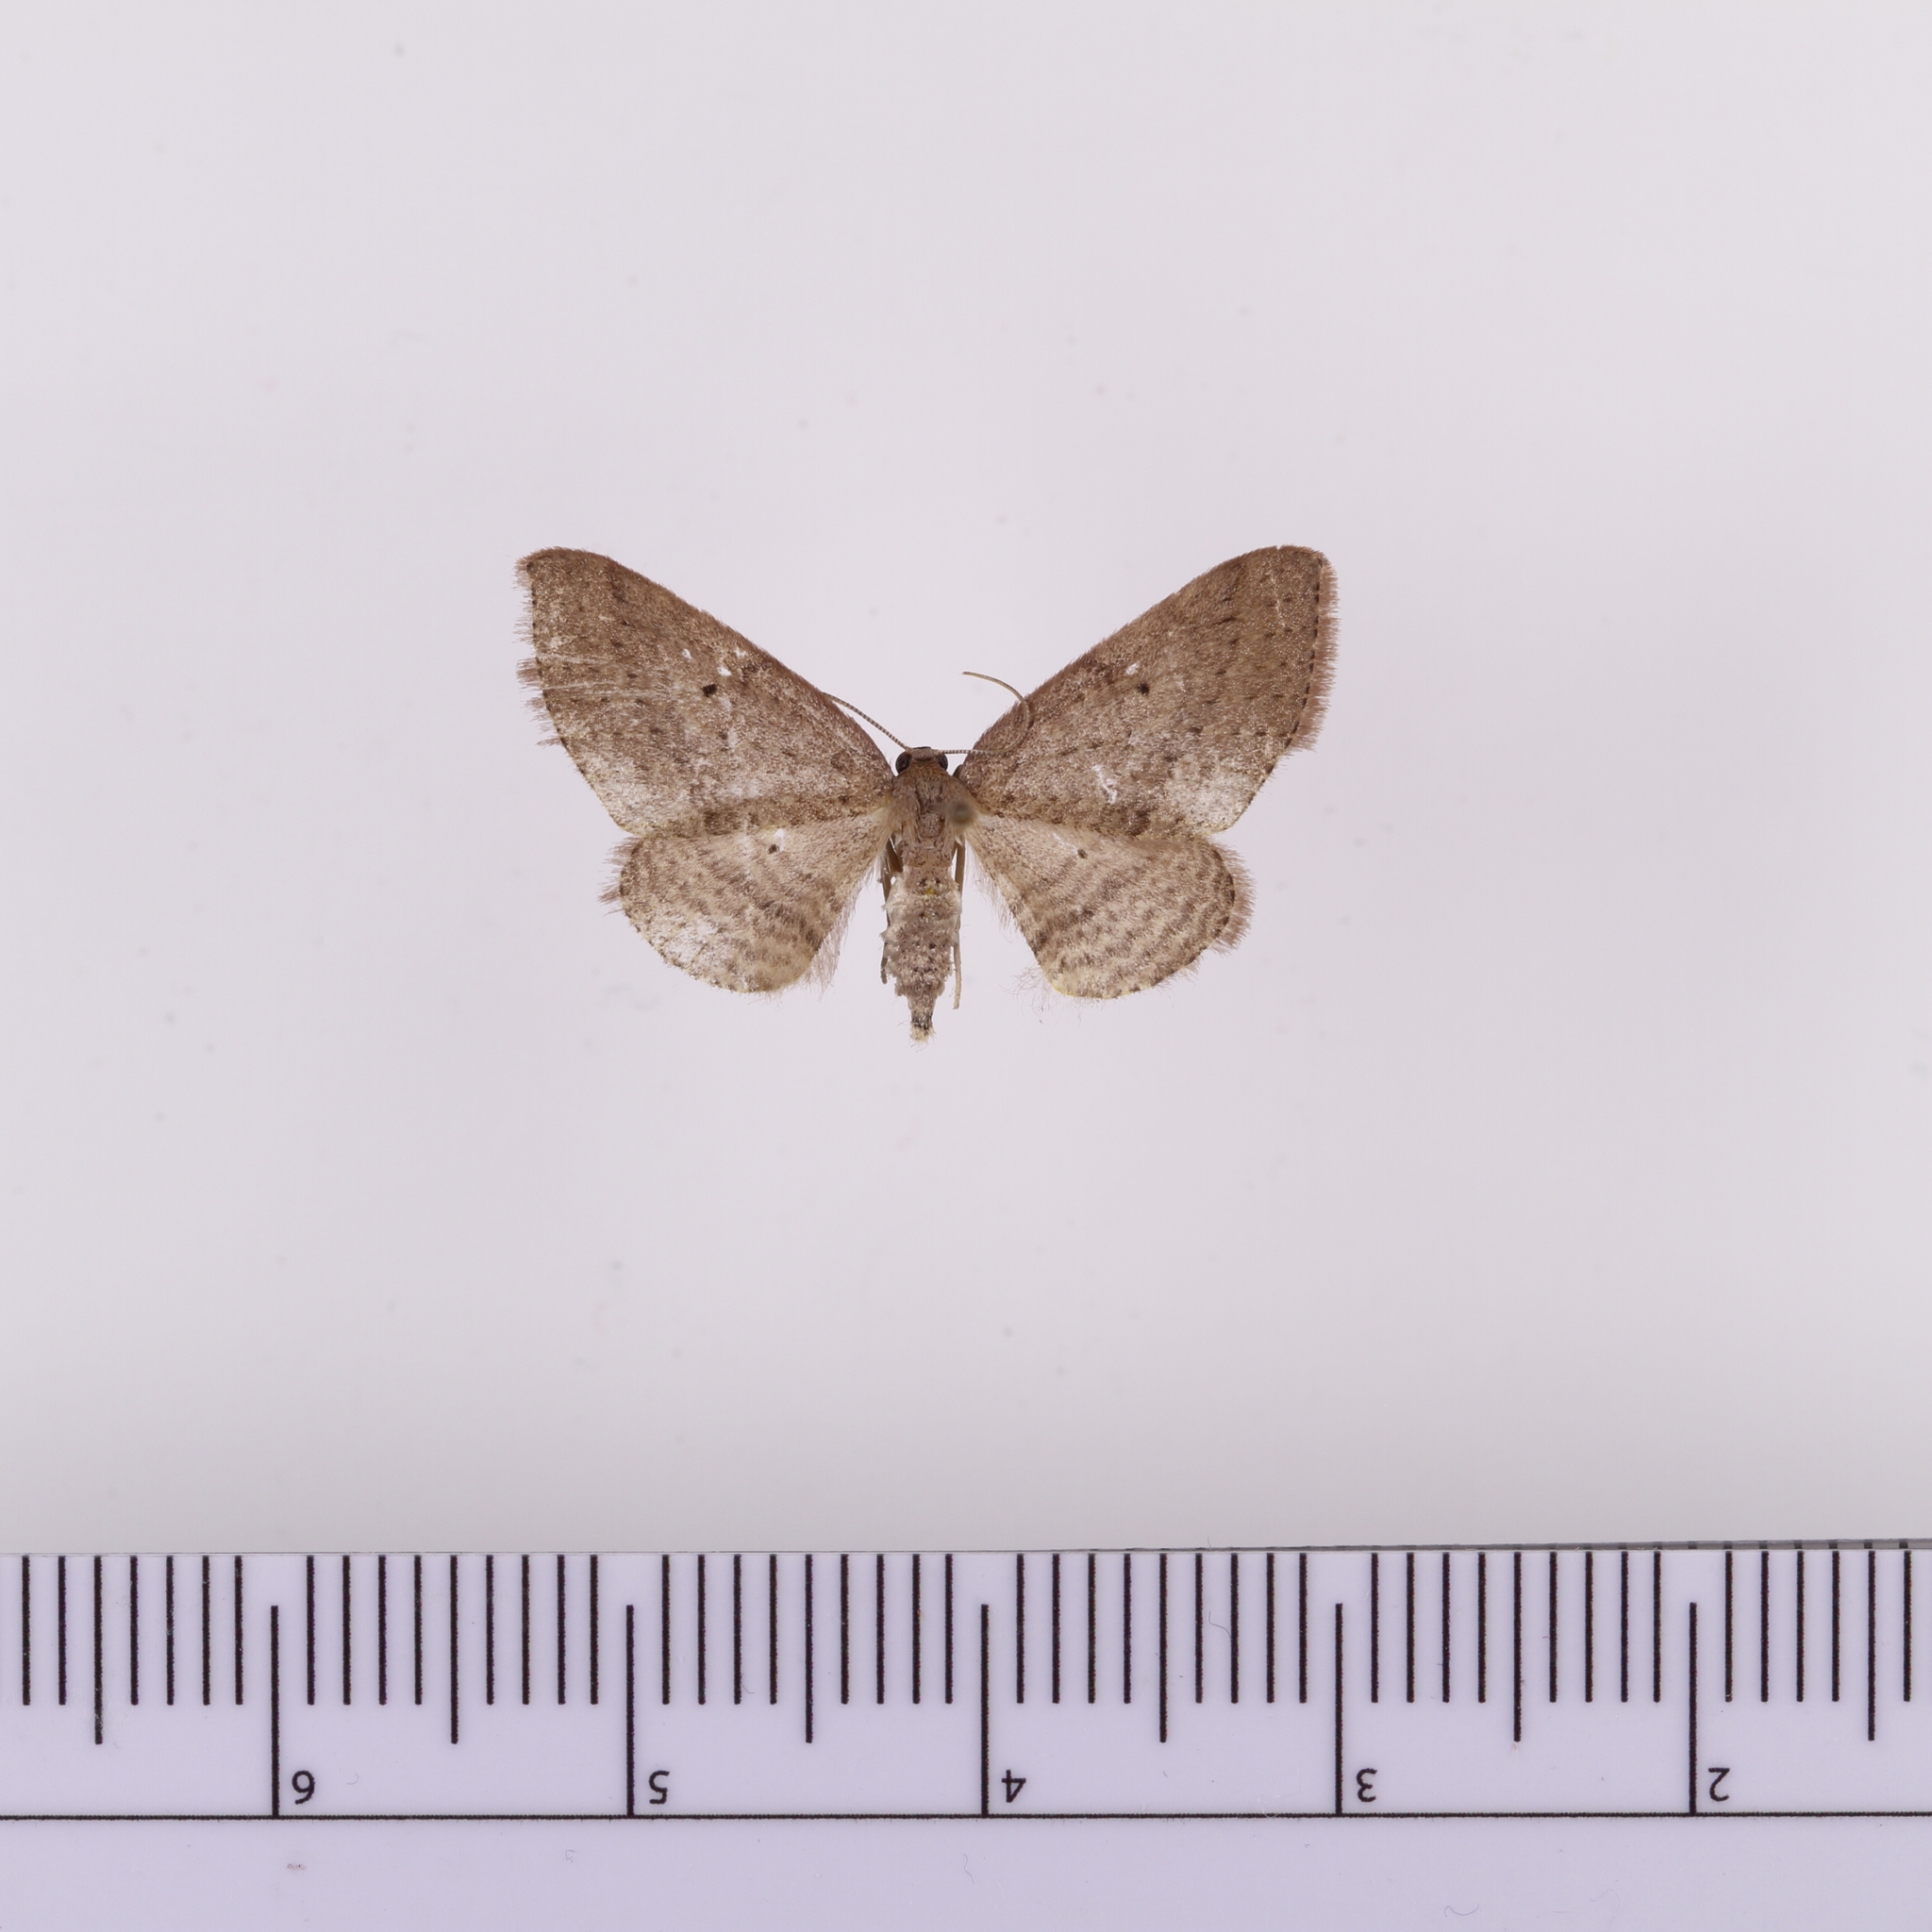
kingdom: Animalia
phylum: Arthropoda
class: Insecta
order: Lepidoptera
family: Geometridae
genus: Poecilasthena
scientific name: Poecilasthena schistaria
